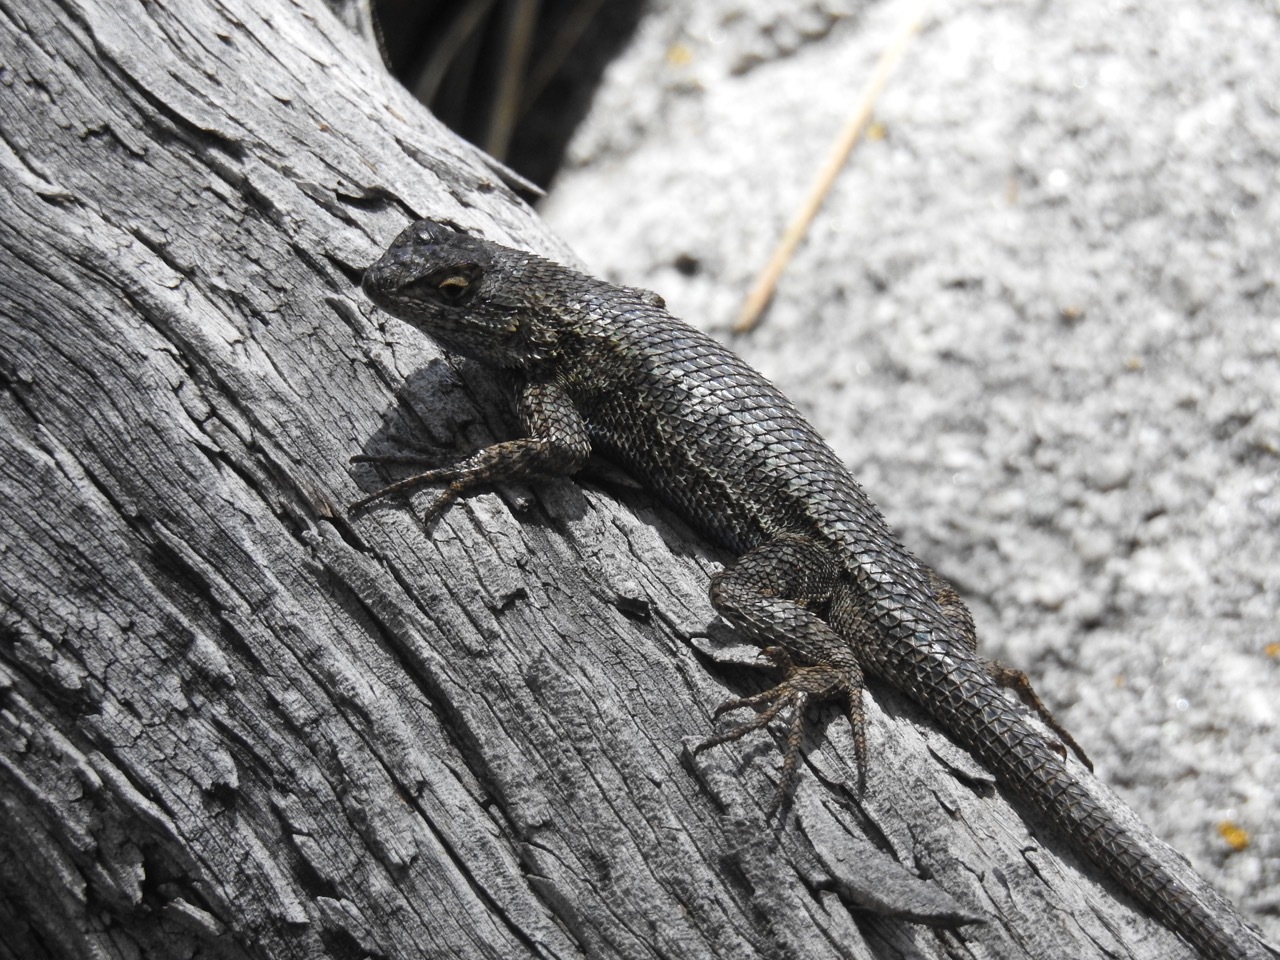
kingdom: Animalia
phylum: Chordata
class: Squamata
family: Phrynosomatidae
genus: Sceloporus
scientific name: Sceloporus occidentalis
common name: Western fence lizard
